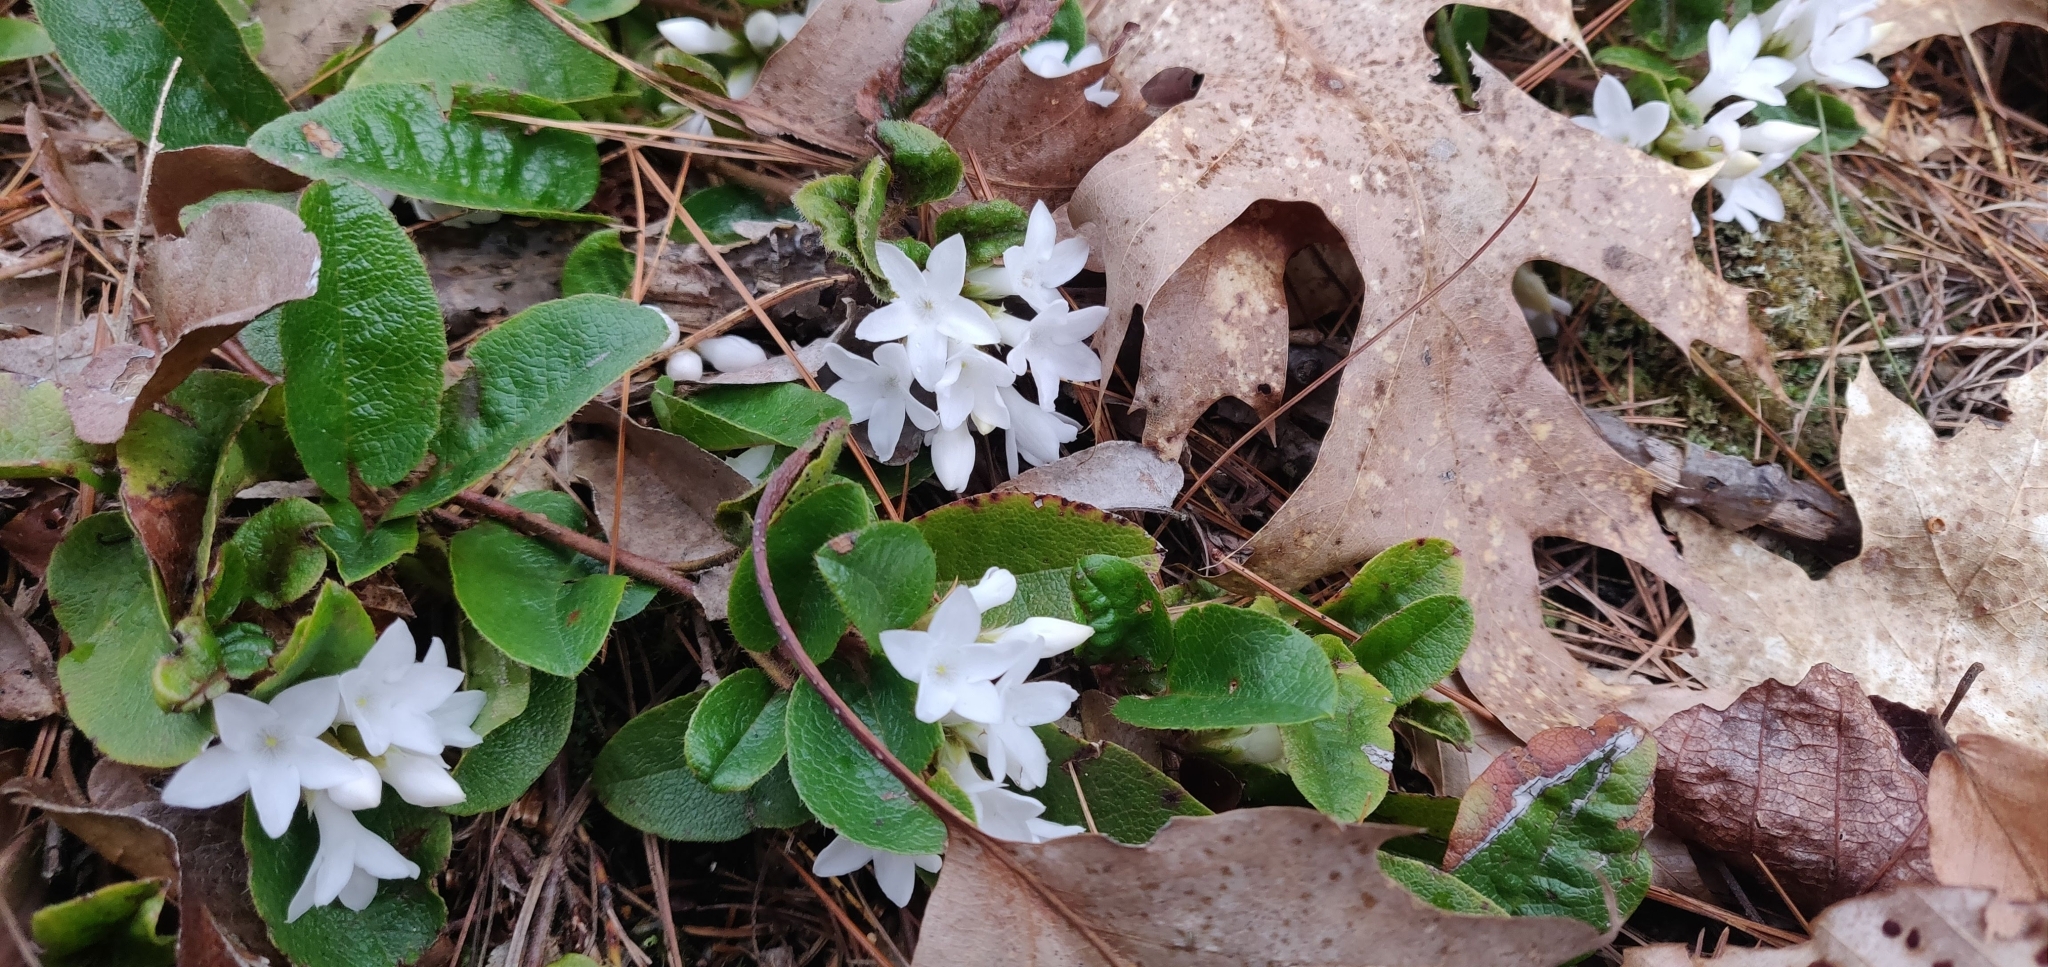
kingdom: Plantae
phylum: Tracheophyta
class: Magnoliopsida
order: Ericales
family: Ericaceae
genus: Epigaea
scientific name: Epigaea repens
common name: Gravelroot
